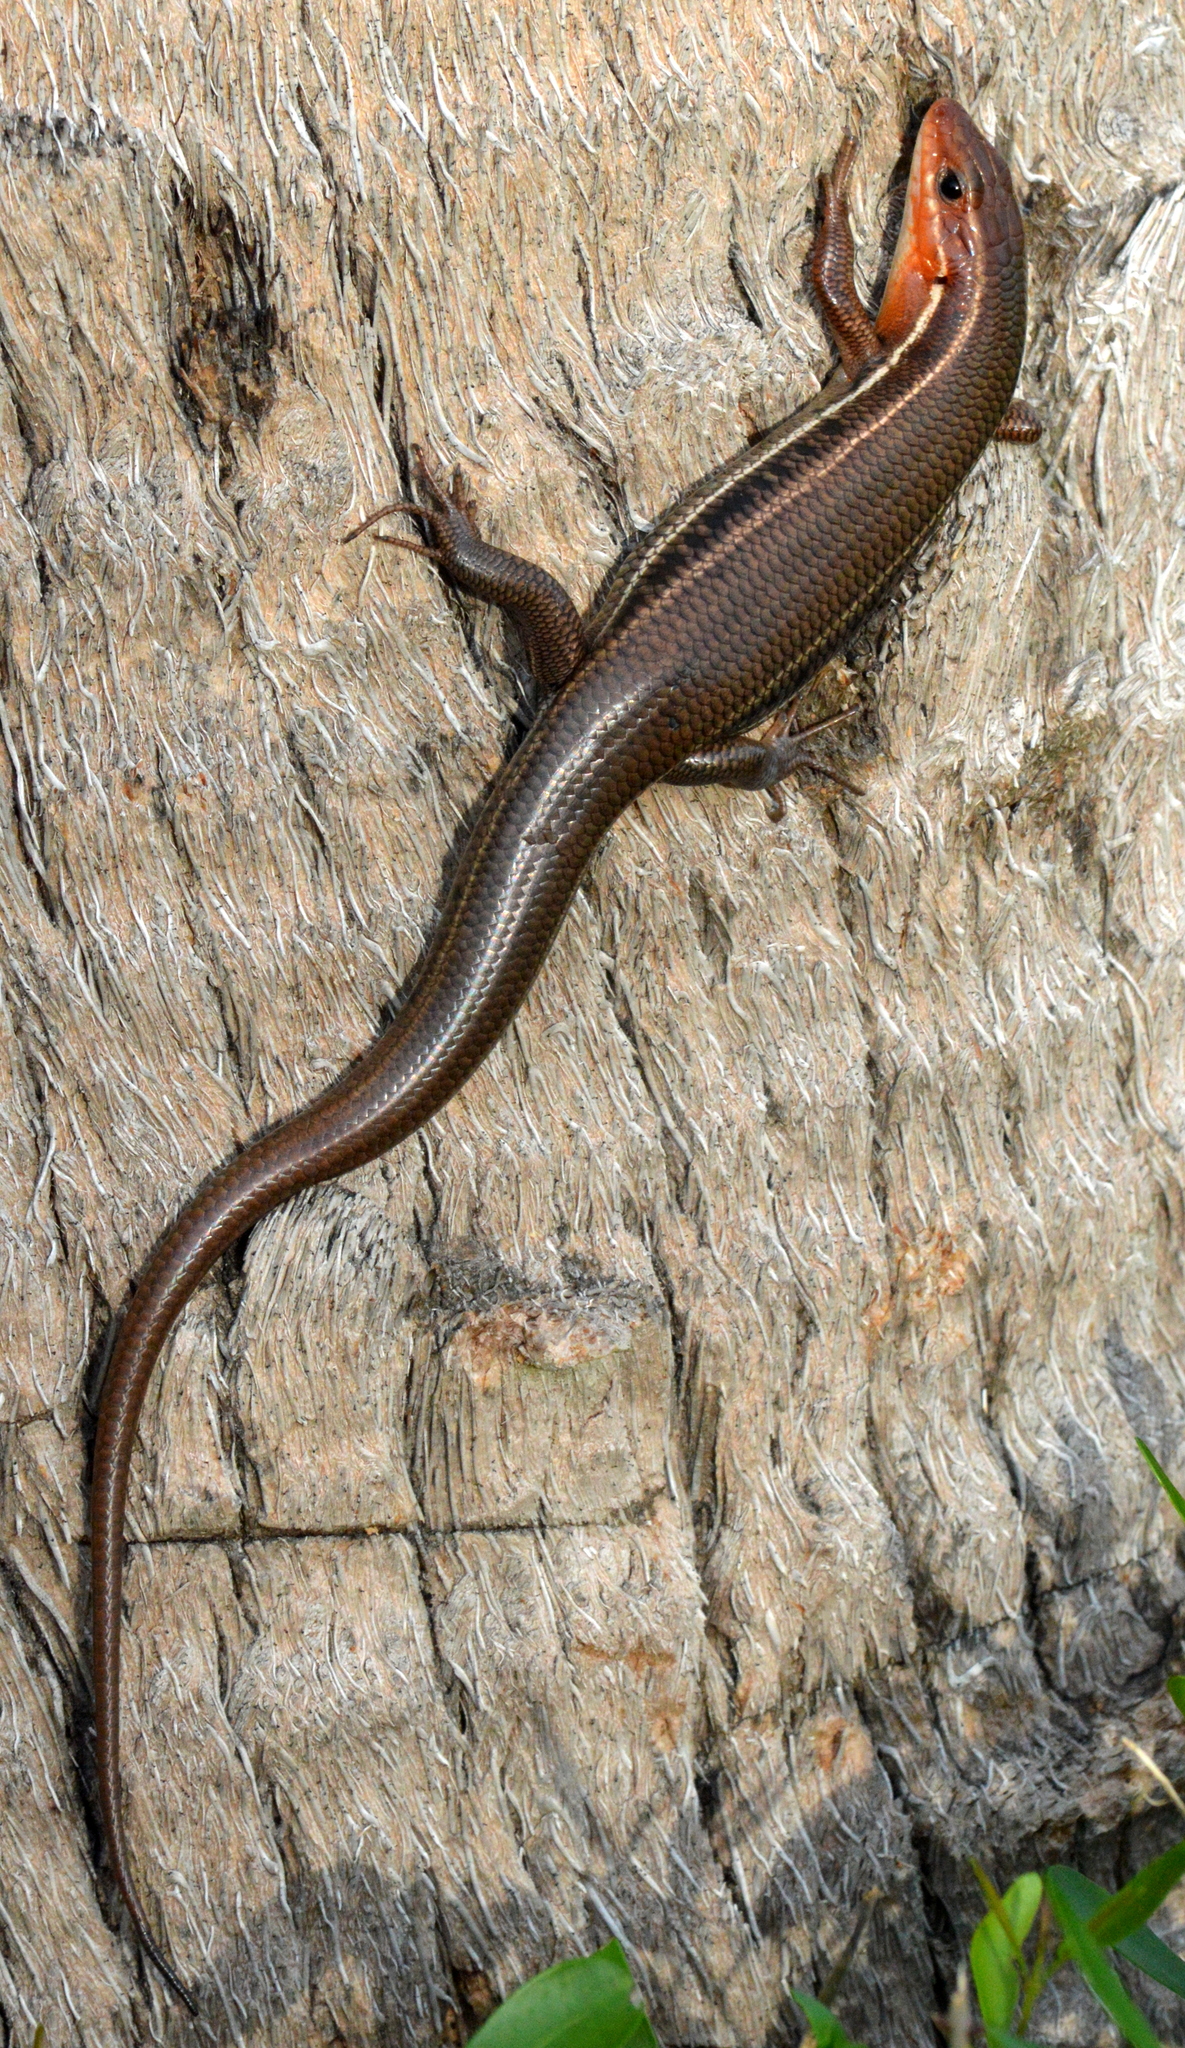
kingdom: Animalia
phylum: Chordata
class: Squamata
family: Scincidae
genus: Plestiodon
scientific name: Plestiodon inexpectatus
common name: Southeastern five-lined skink
